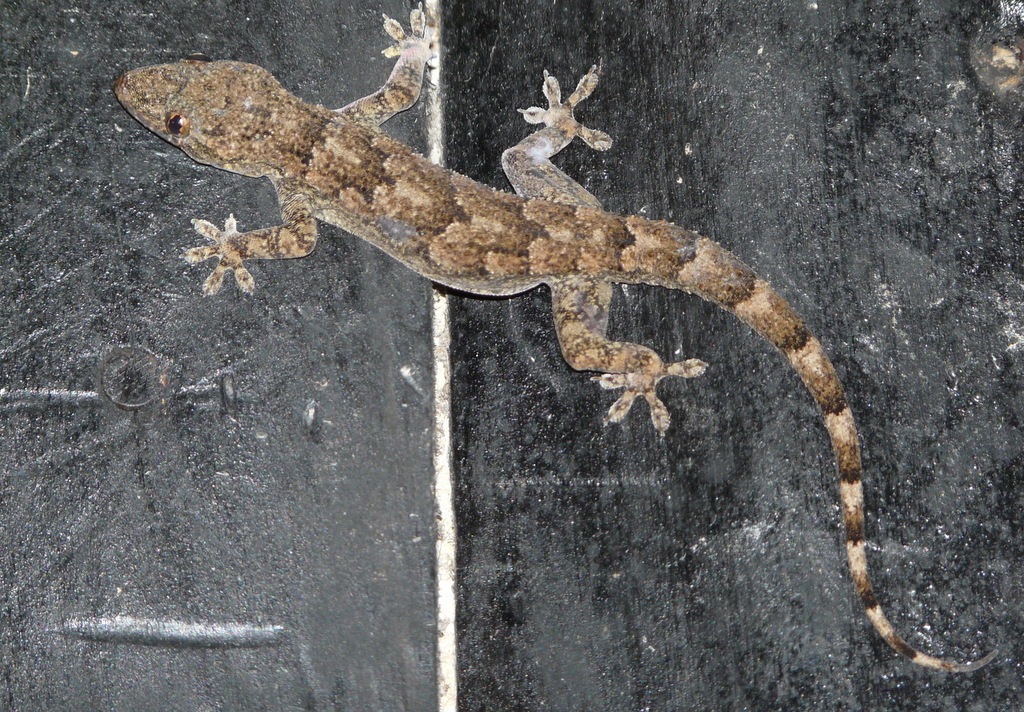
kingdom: Animalia
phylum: Chordata
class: Squamata
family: Gekkonidae
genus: Hemidactylus
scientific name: Hemidactylus platycephalus
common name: Baobab gecko
